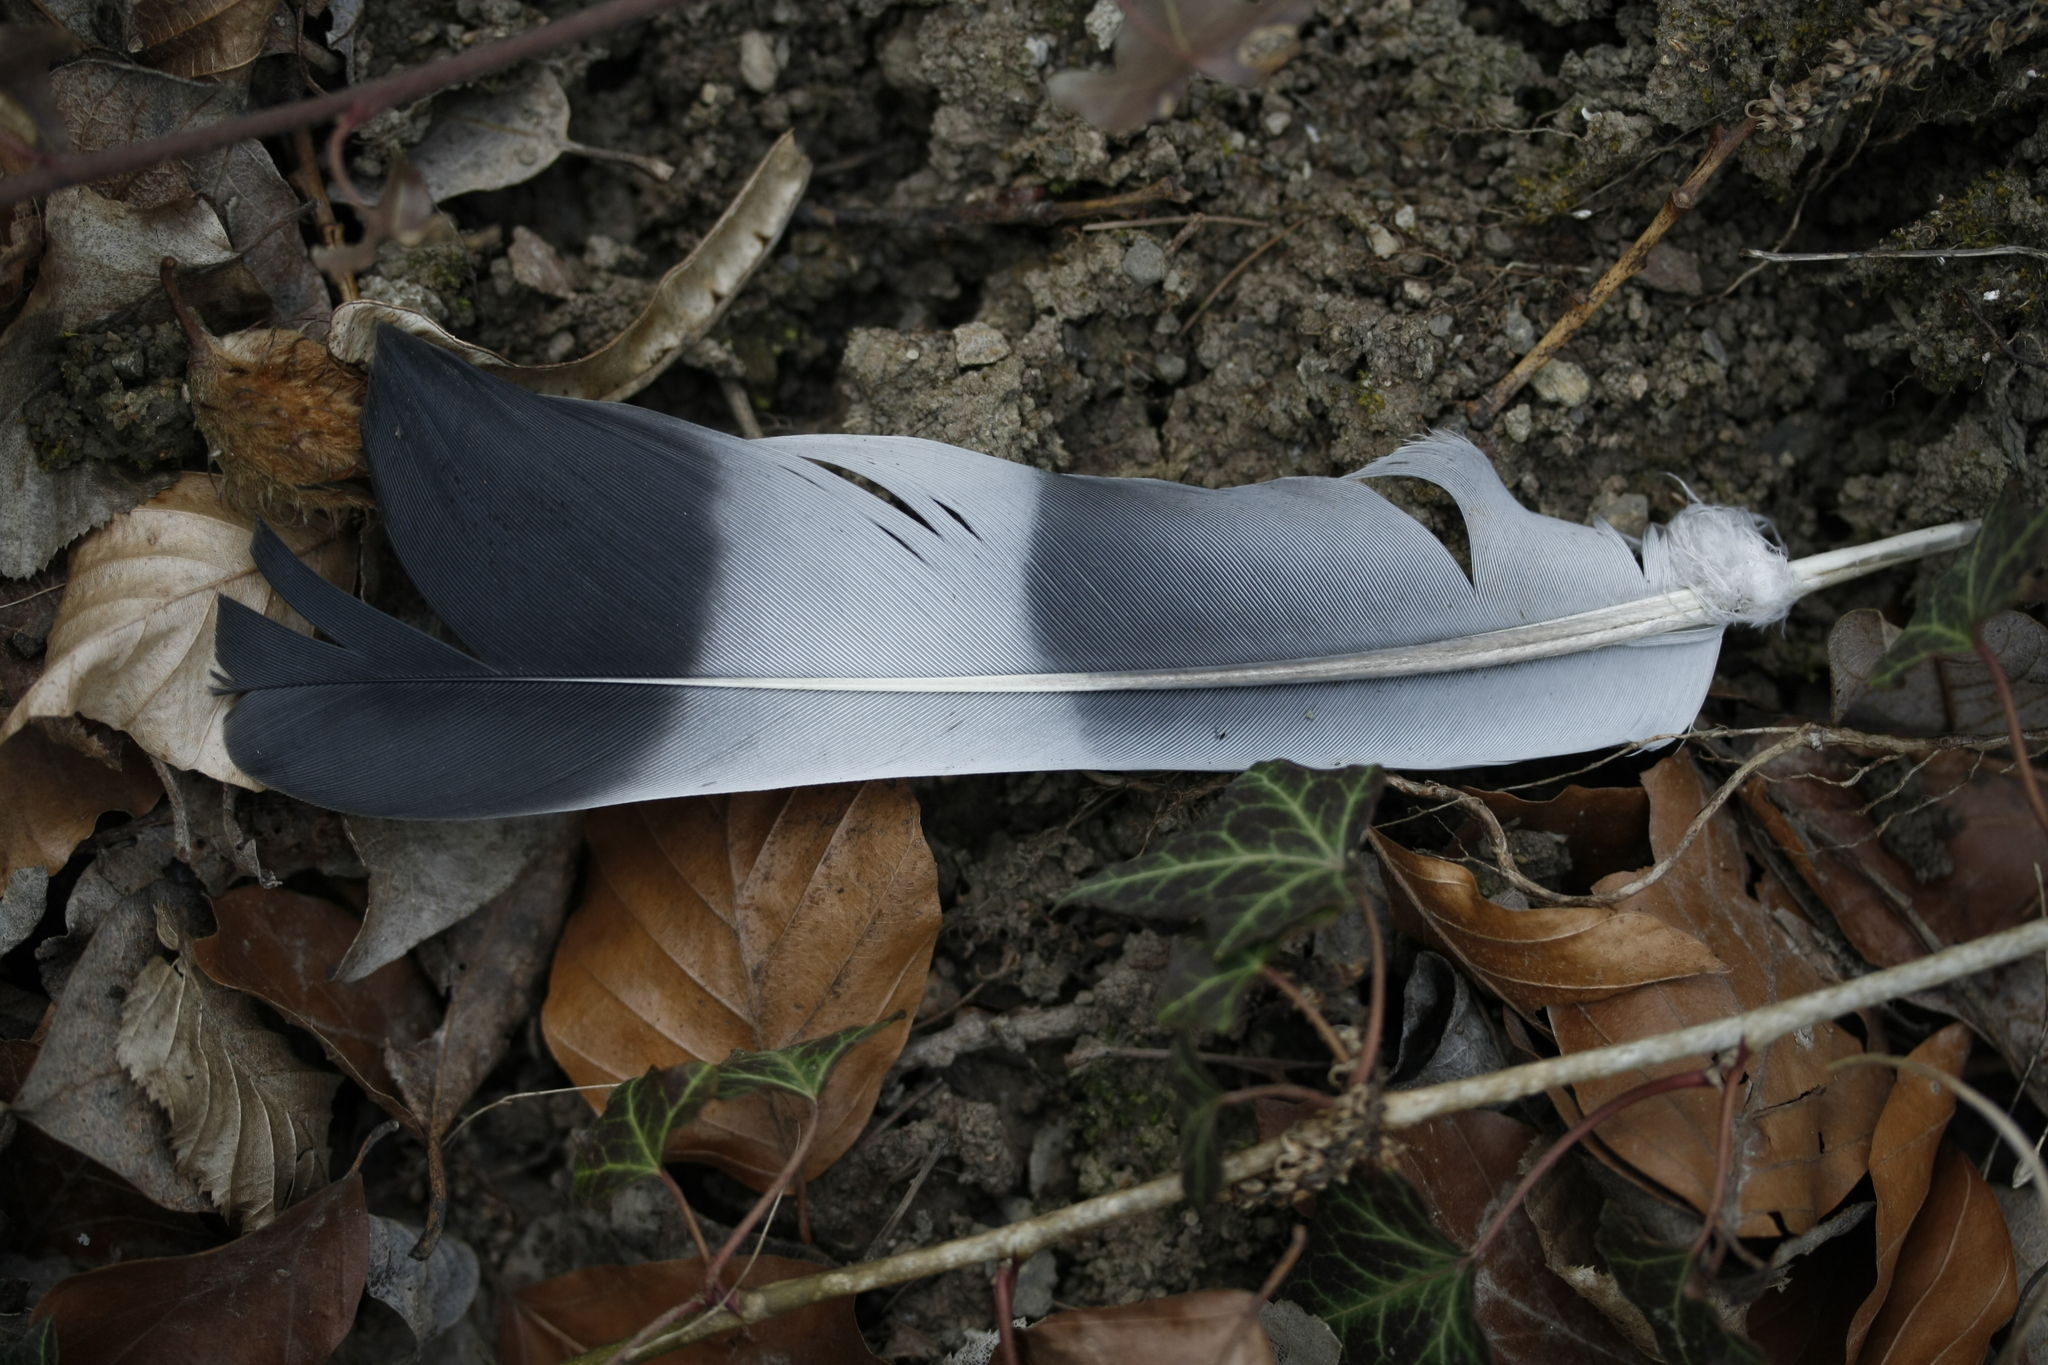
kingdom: Animalia
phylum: Chordata
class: Aves
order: Columbiformes
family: Columbidae
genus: Columba
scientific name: Columba palumbus
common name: Common wood pigeon
